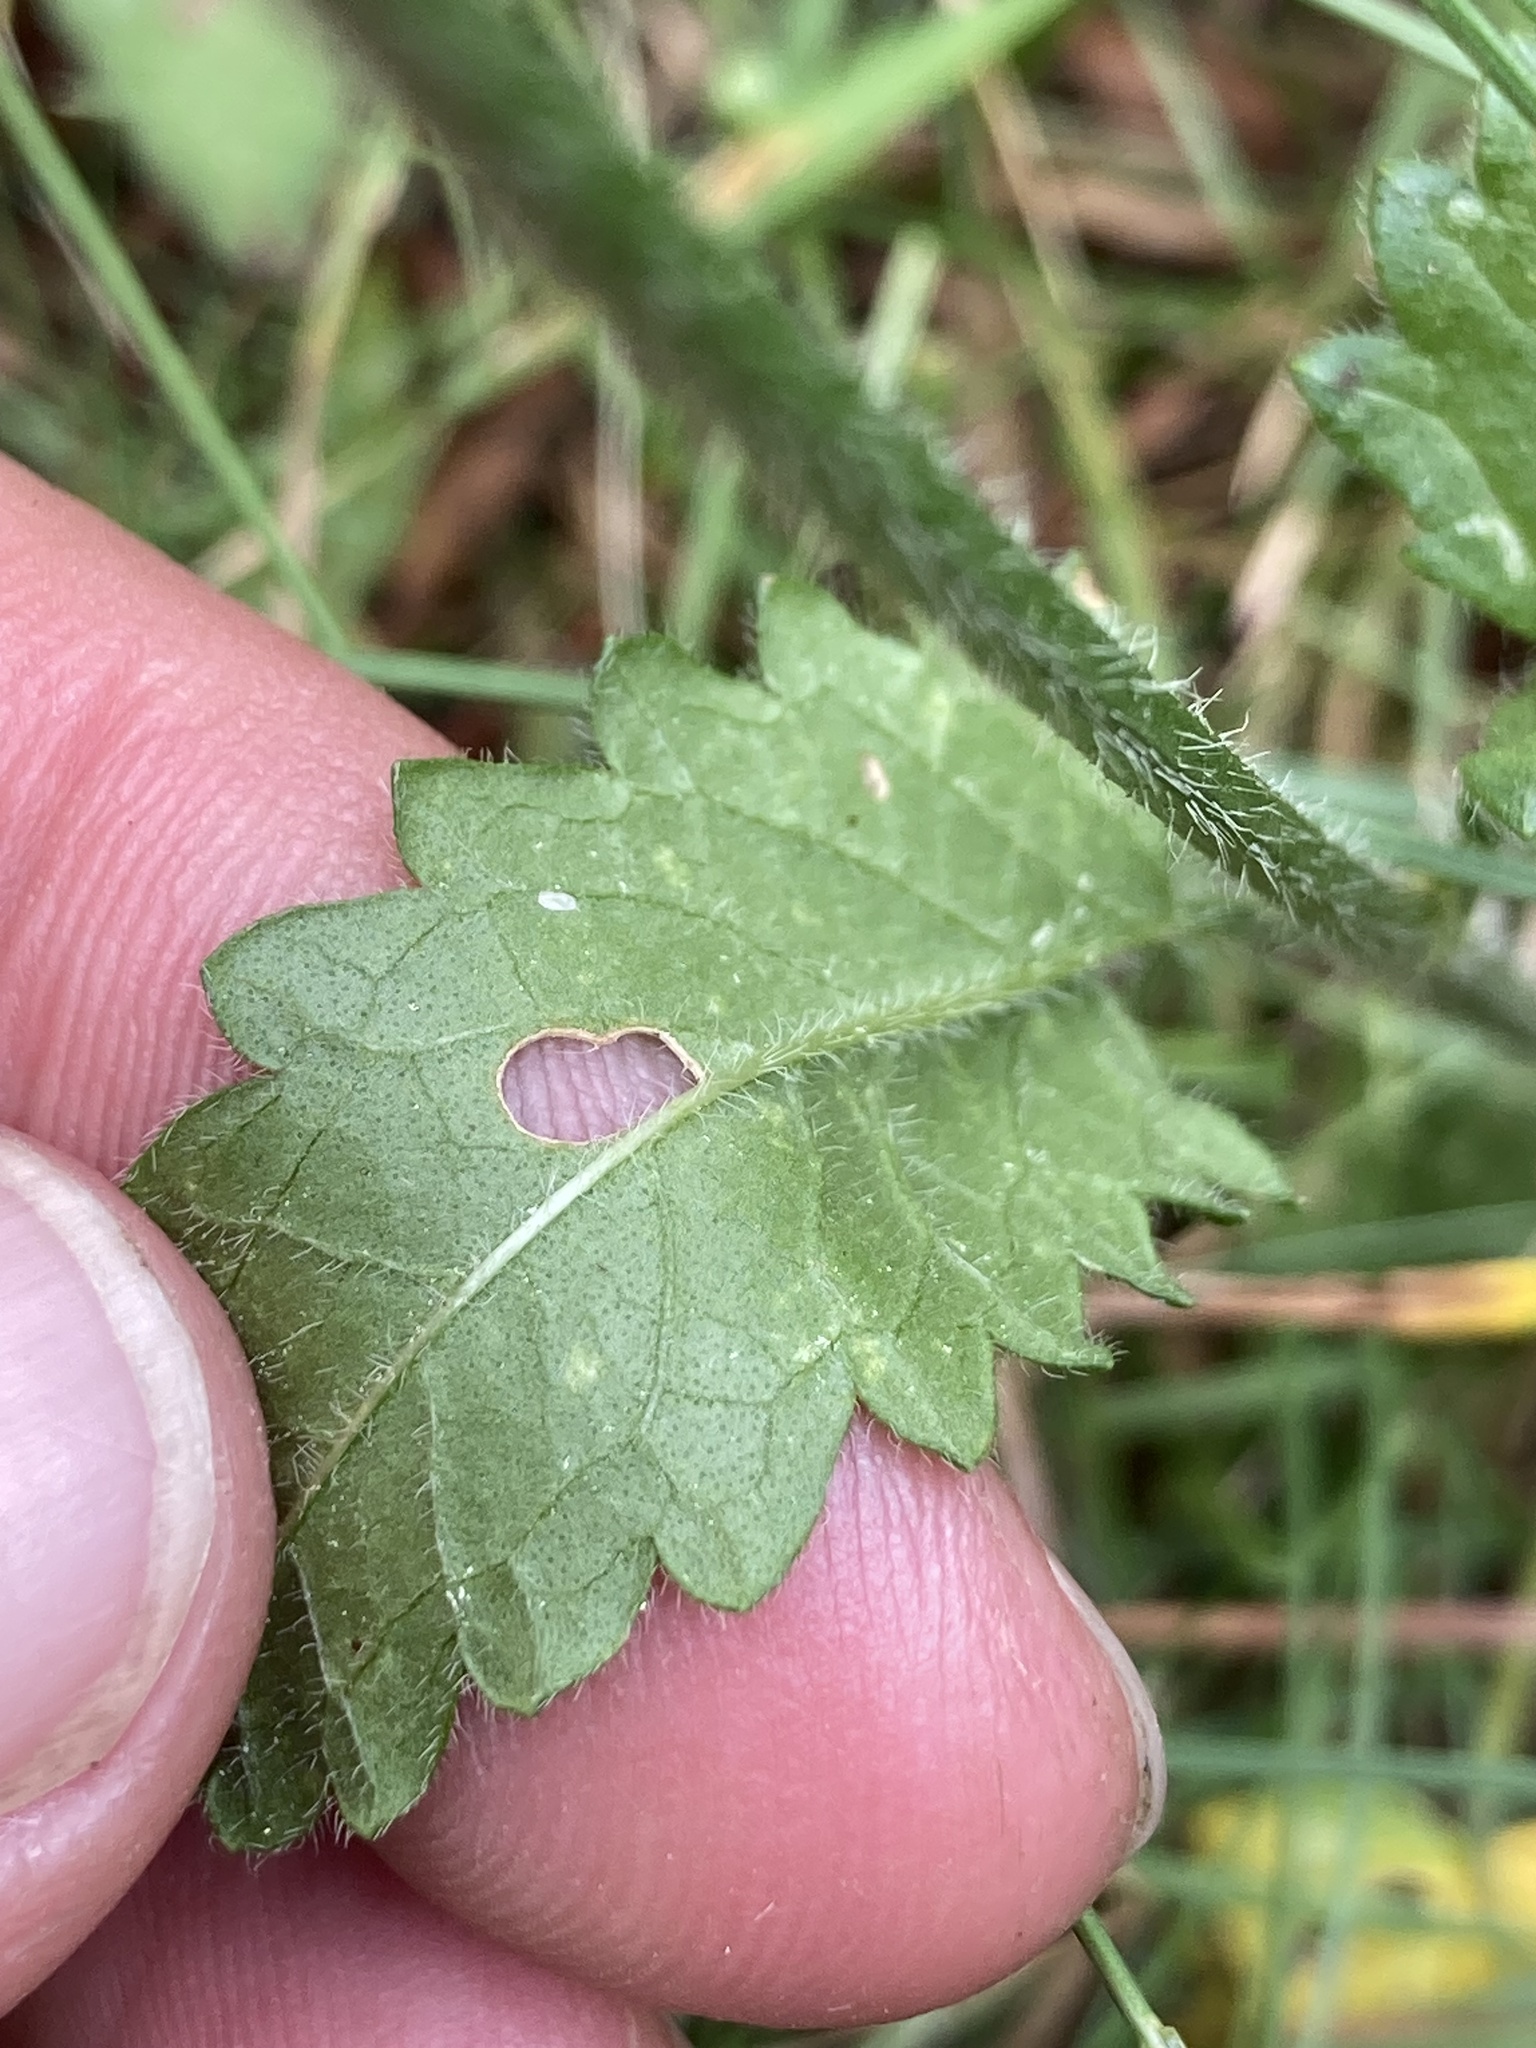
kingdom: Plantae
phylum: Tracheophyta
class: Magnoliopsida
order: Lamiales
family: Lamiaceae
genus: Betonica
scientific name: Betonica officinalis
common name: Bishop's-wort
